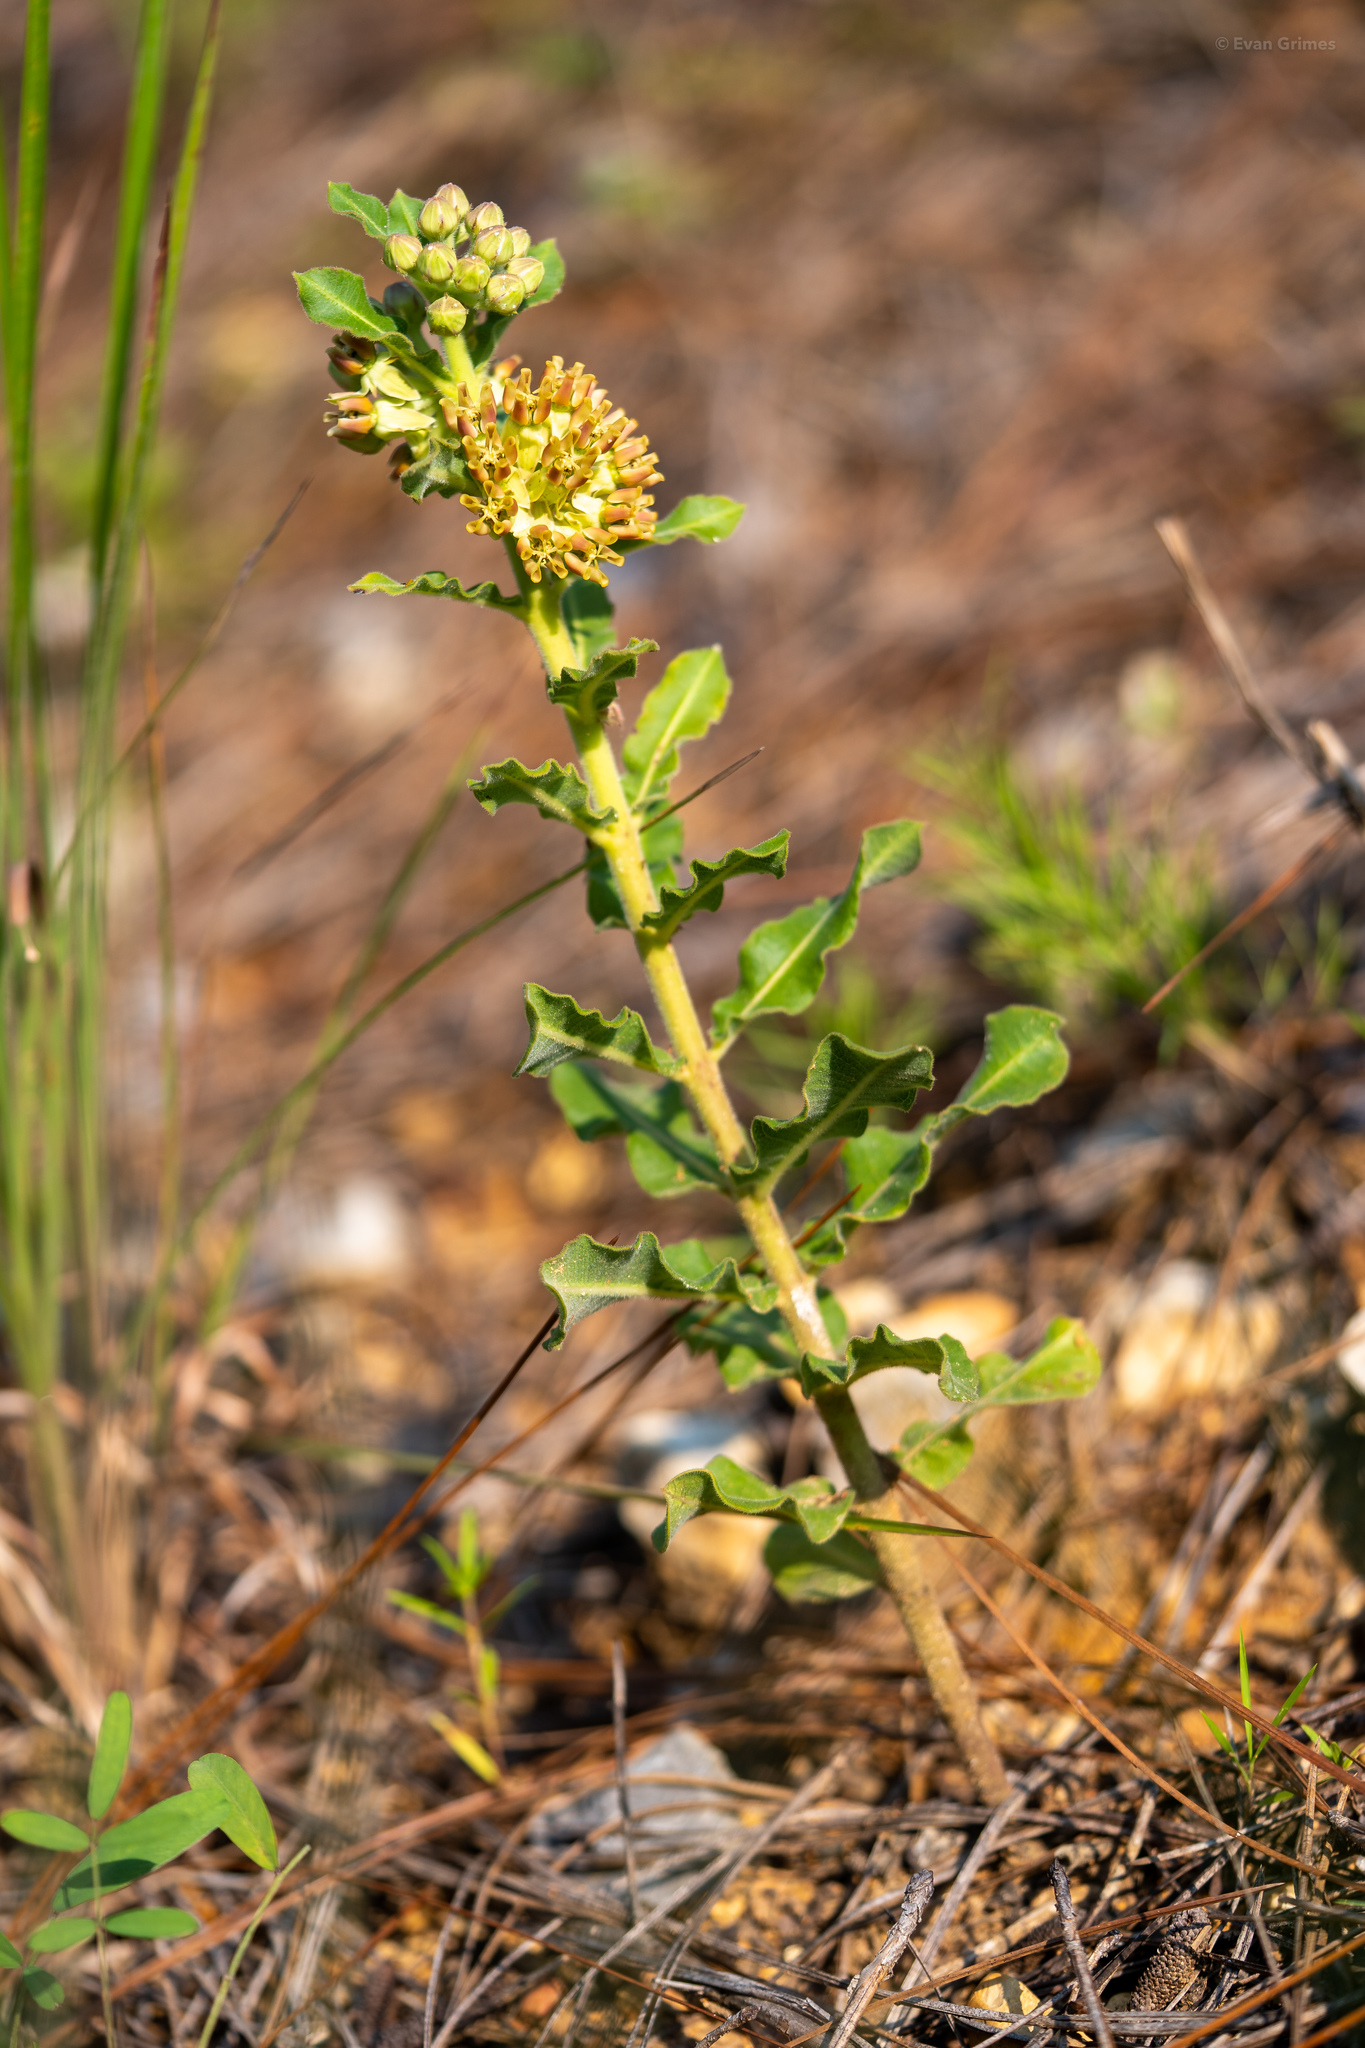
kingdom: Plantae
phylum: Tracheophyta
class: Magnoliopsida
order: Gentianales
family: Apocynaceae
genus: Asclepias
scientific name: Asclepias obovata
